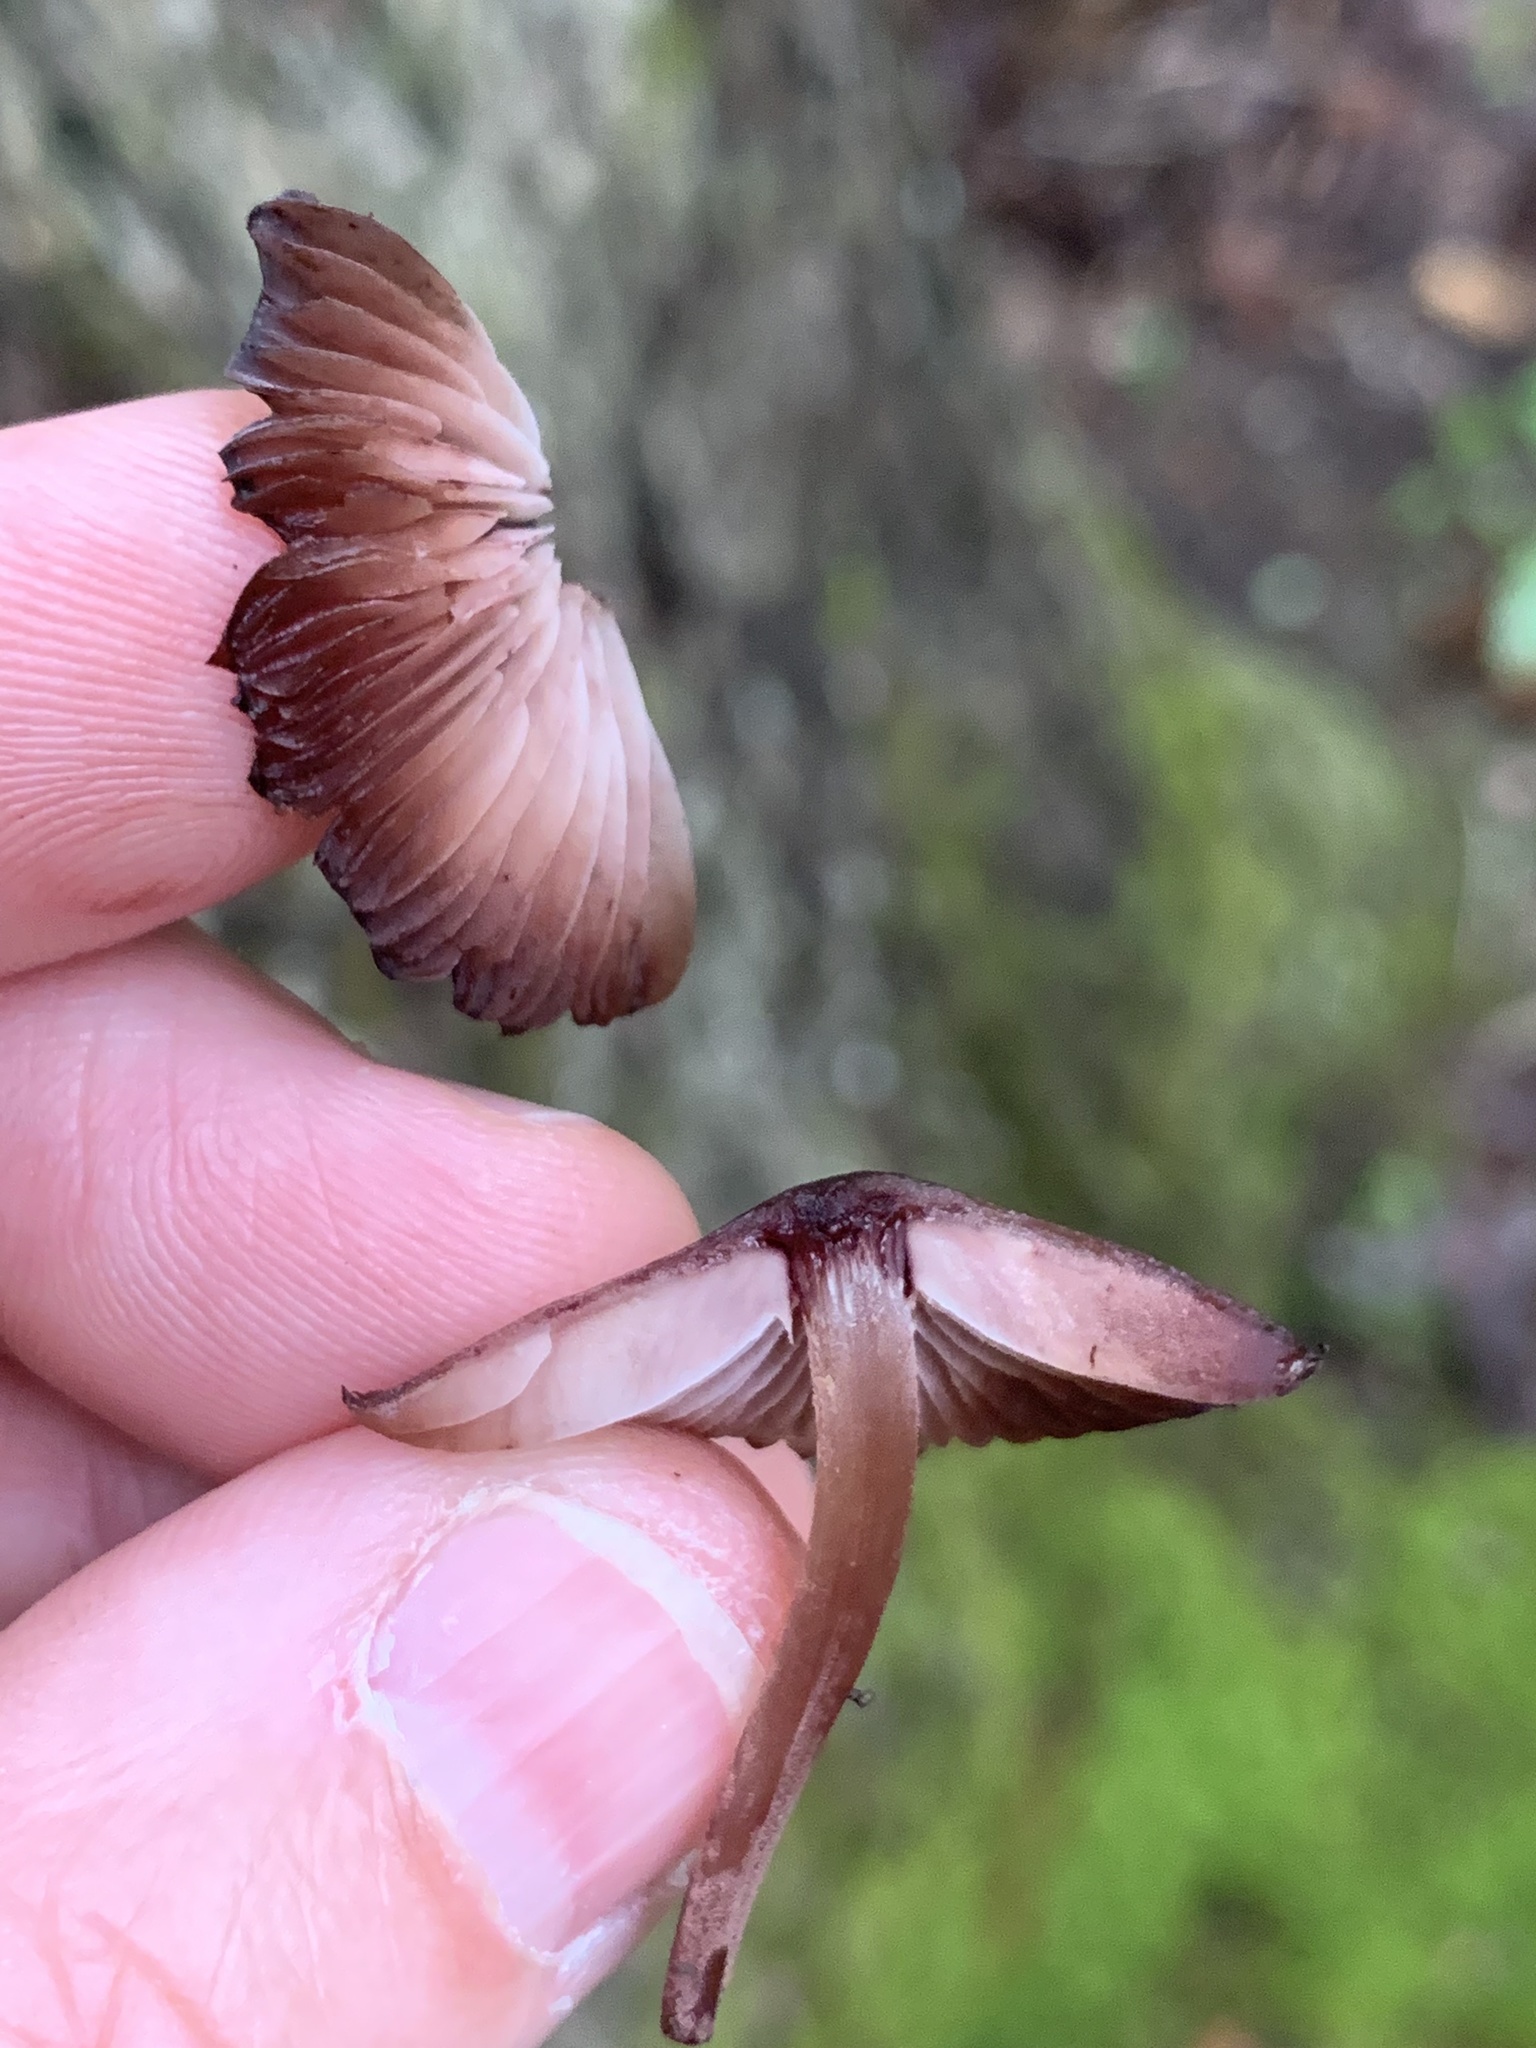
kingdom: Fungi
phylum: Basidiomycota
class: Agaricomycetes
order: Agaricales
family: Mycenaceae
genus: Mycena
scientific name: Mycena haematopus
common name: Burgundydrop bonnet
